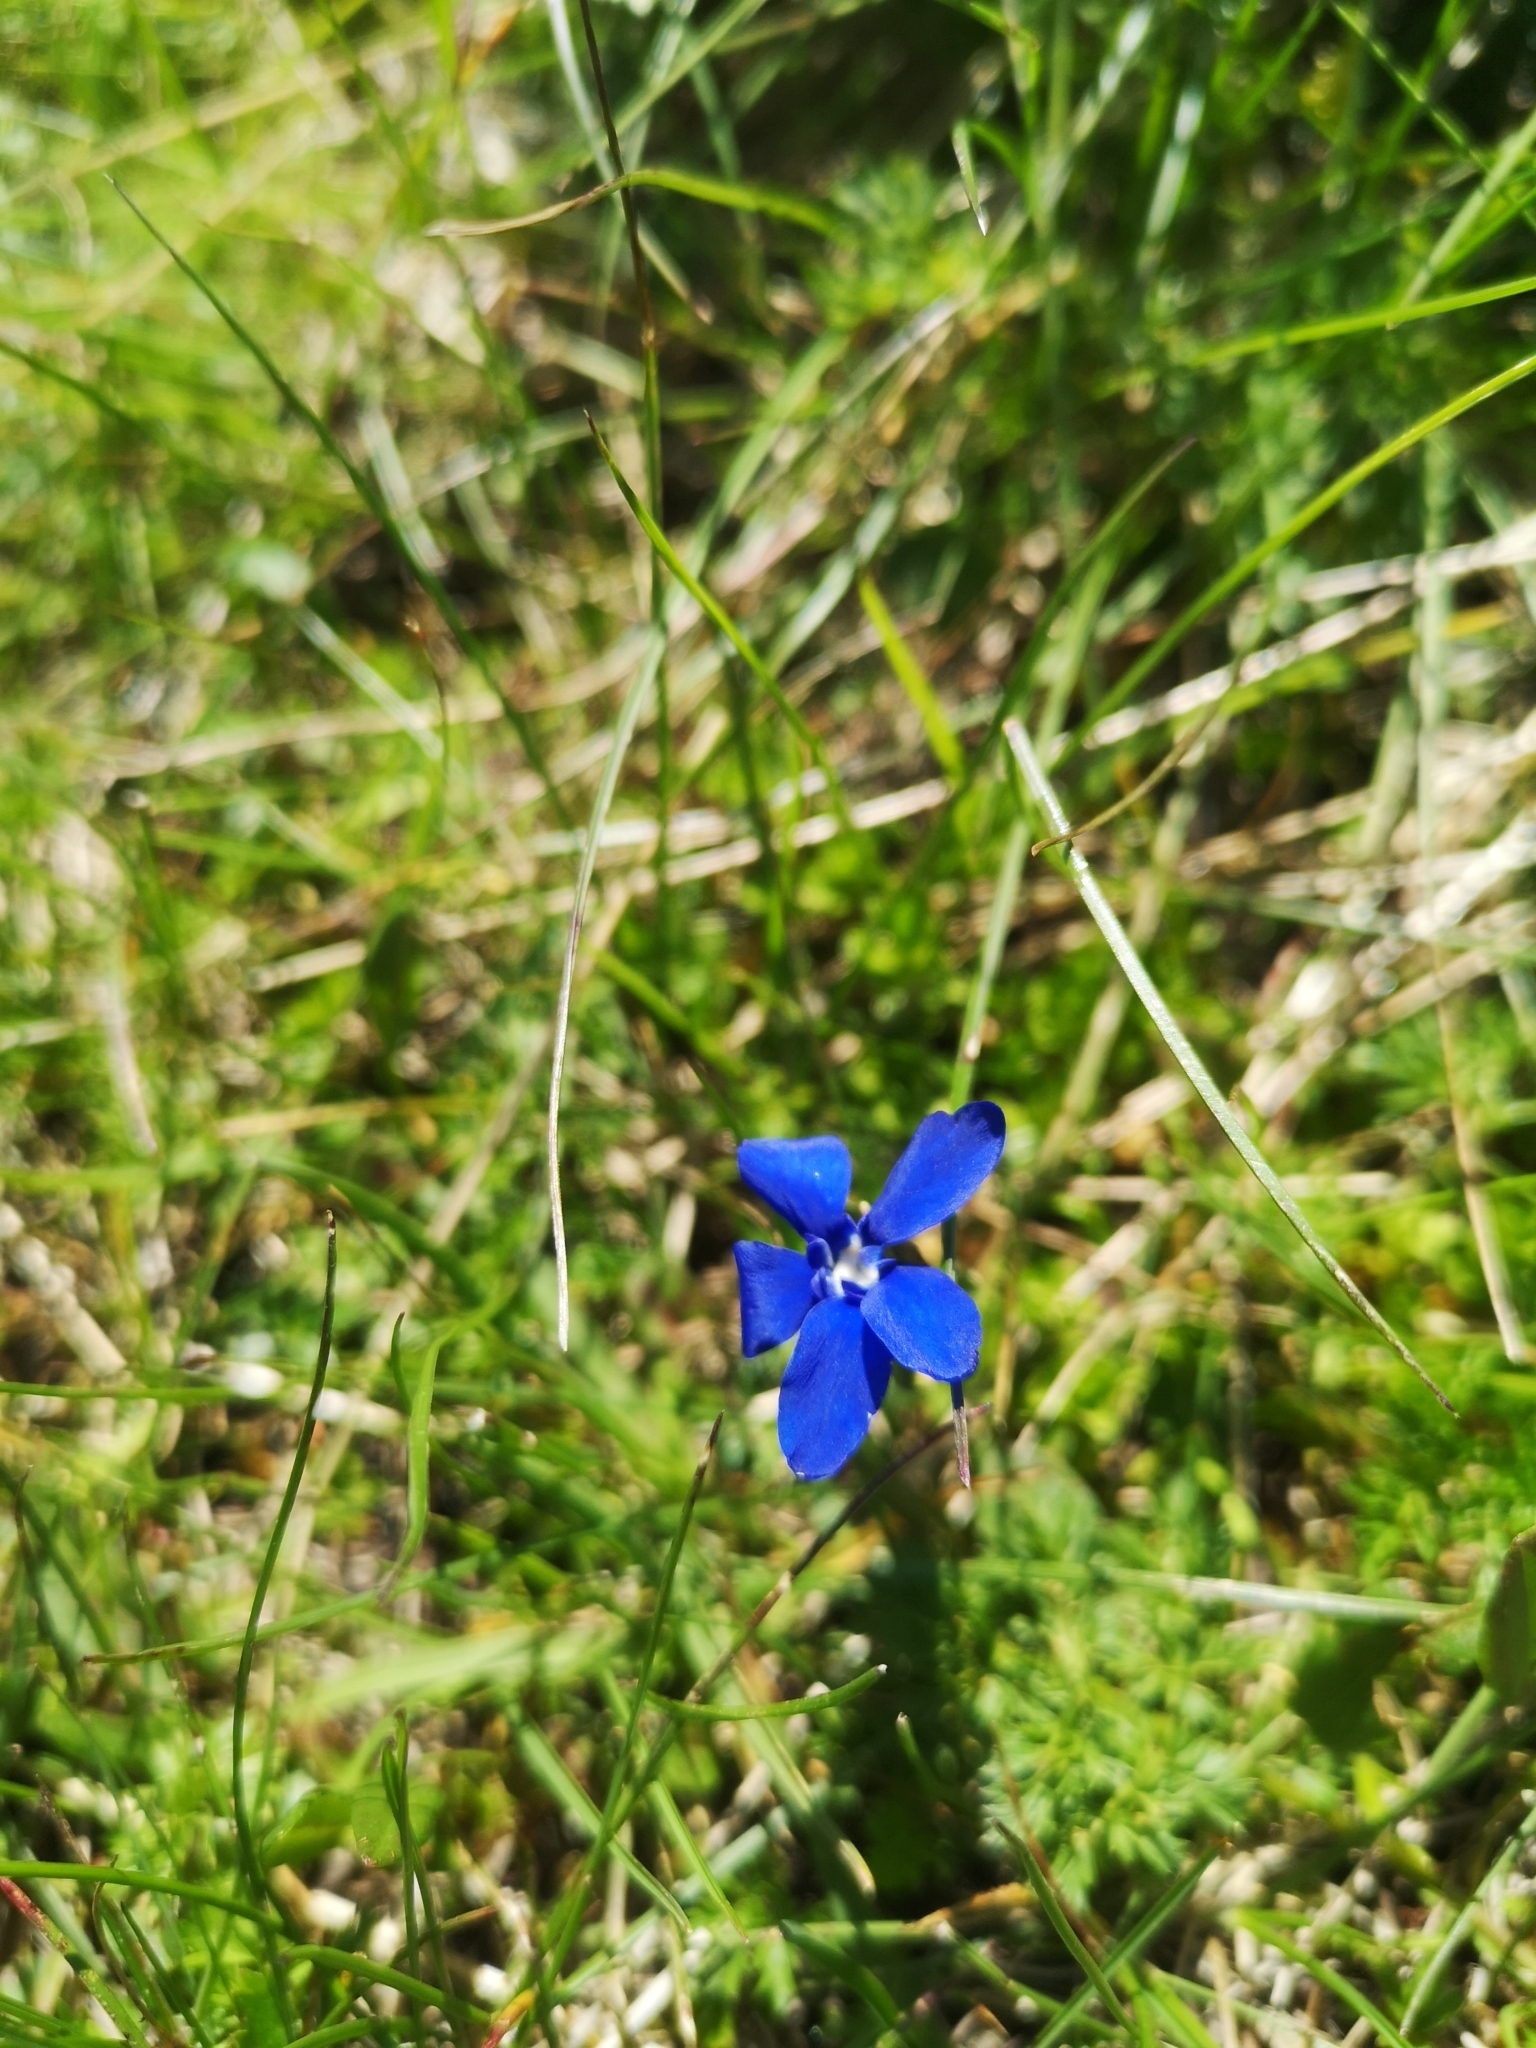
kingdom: Plantae
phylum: Tracheophyta
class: Magnoliopsida
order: Gentianales
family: Gentianaceae
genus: Gentiana
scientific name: Gentiana
